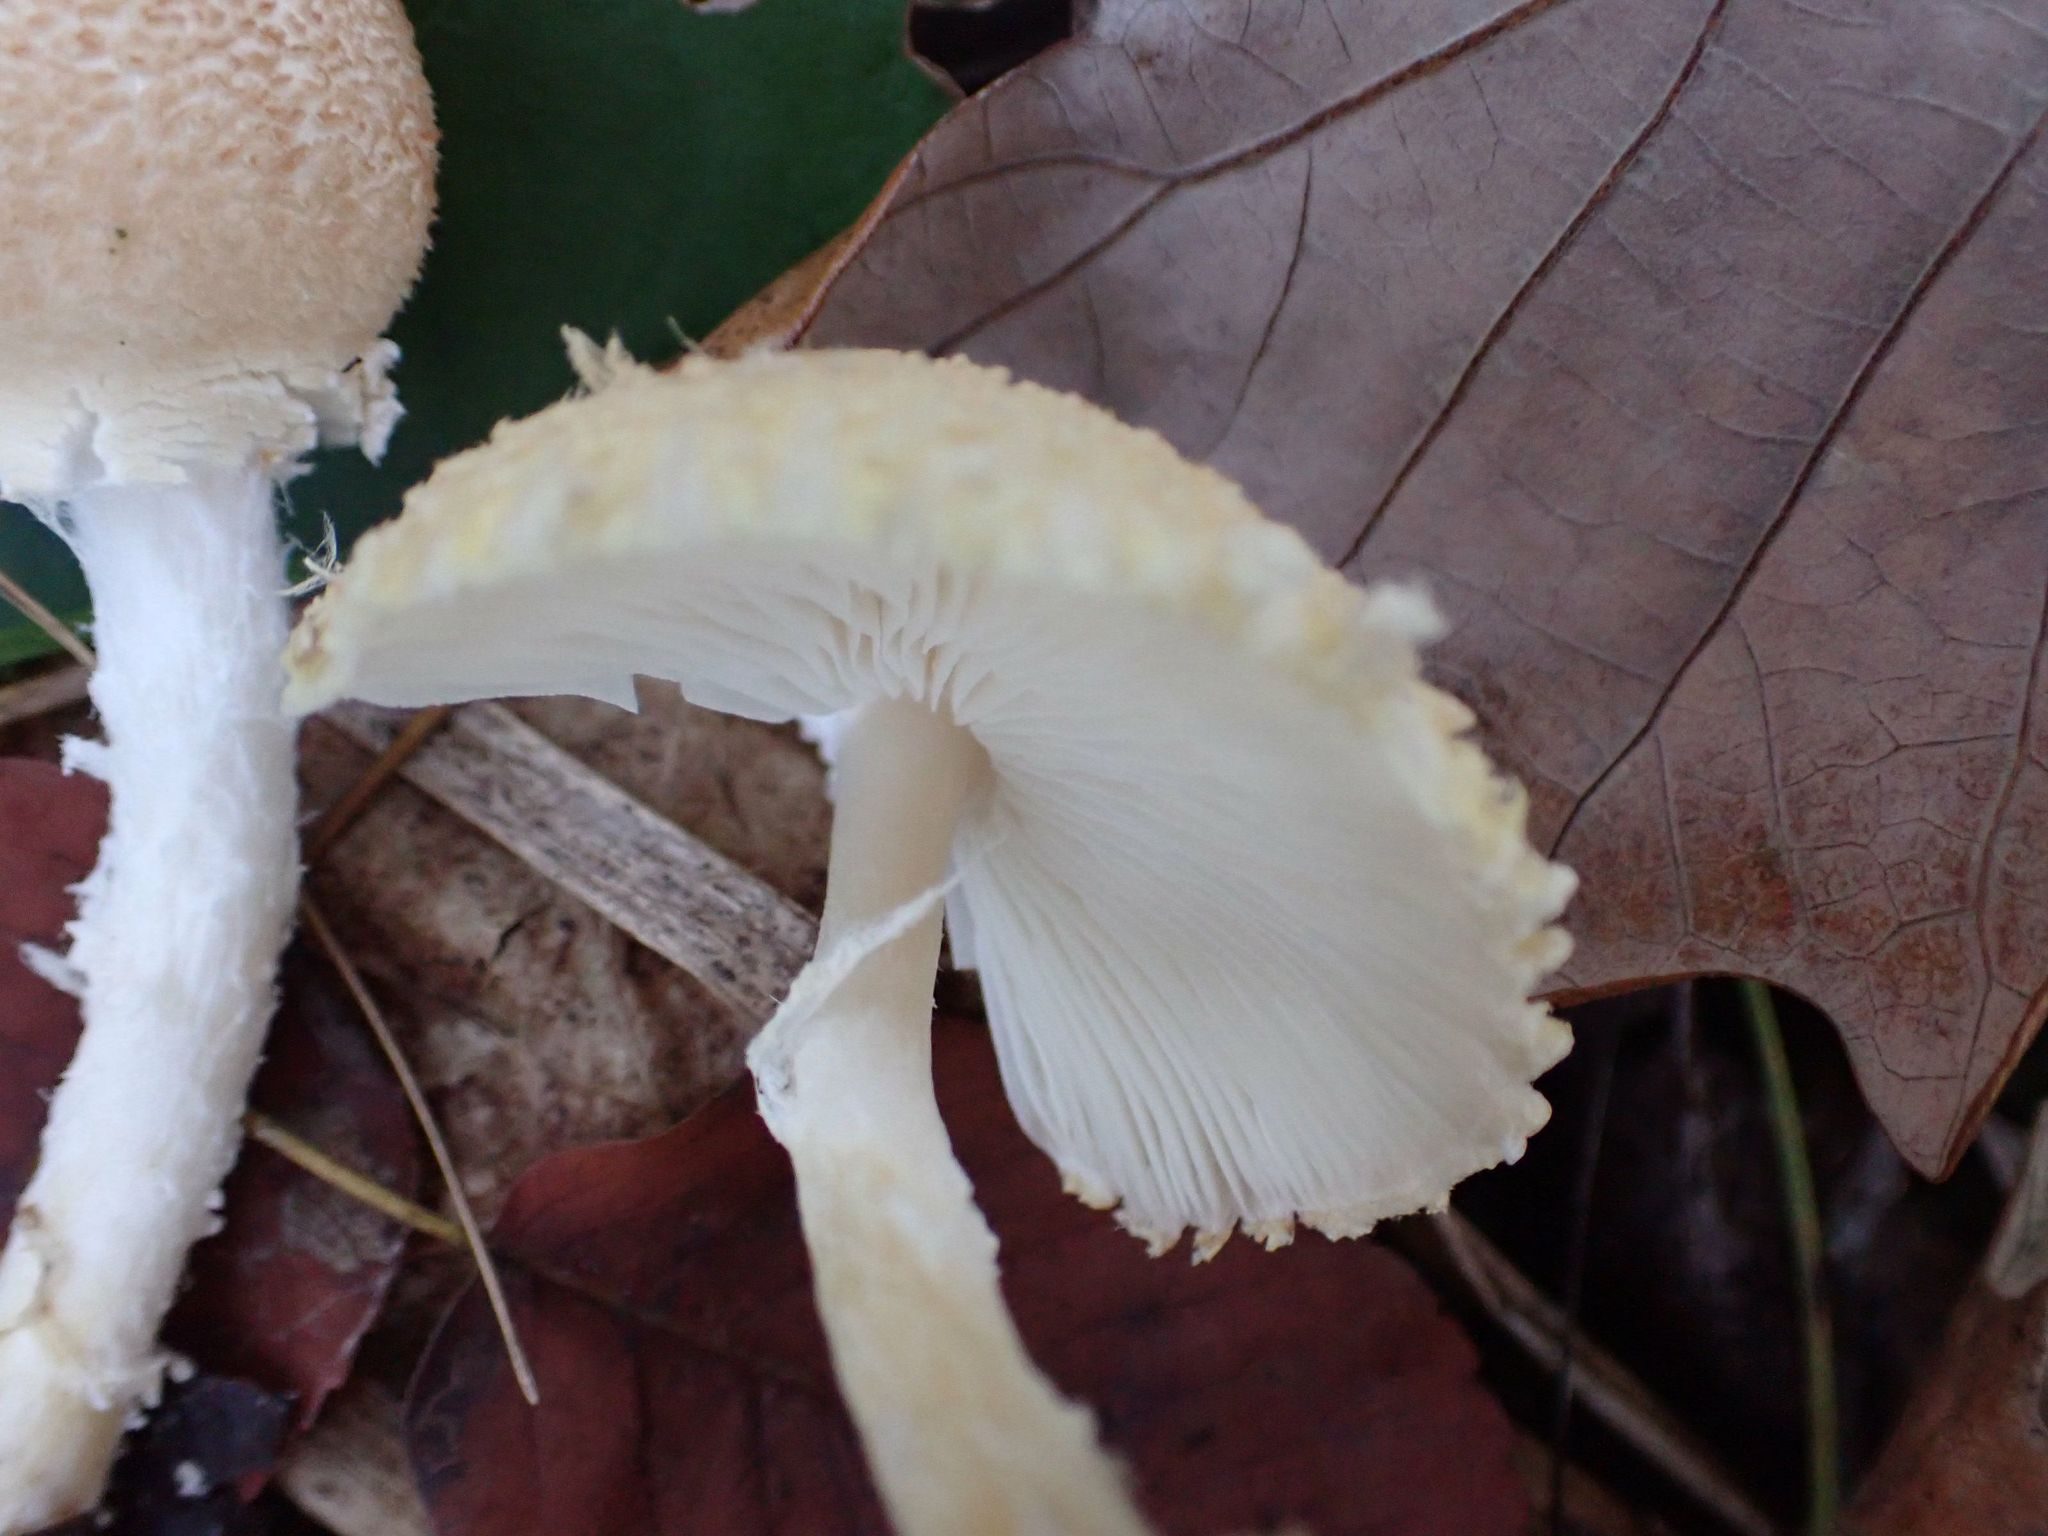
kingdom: Fungi
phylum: Basidiomycota
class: Agaricomycetes
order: Agaricales
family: Agaricaceae
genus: Lepiota
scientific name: Lepiota clypeolaria
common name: Shield dapperling
